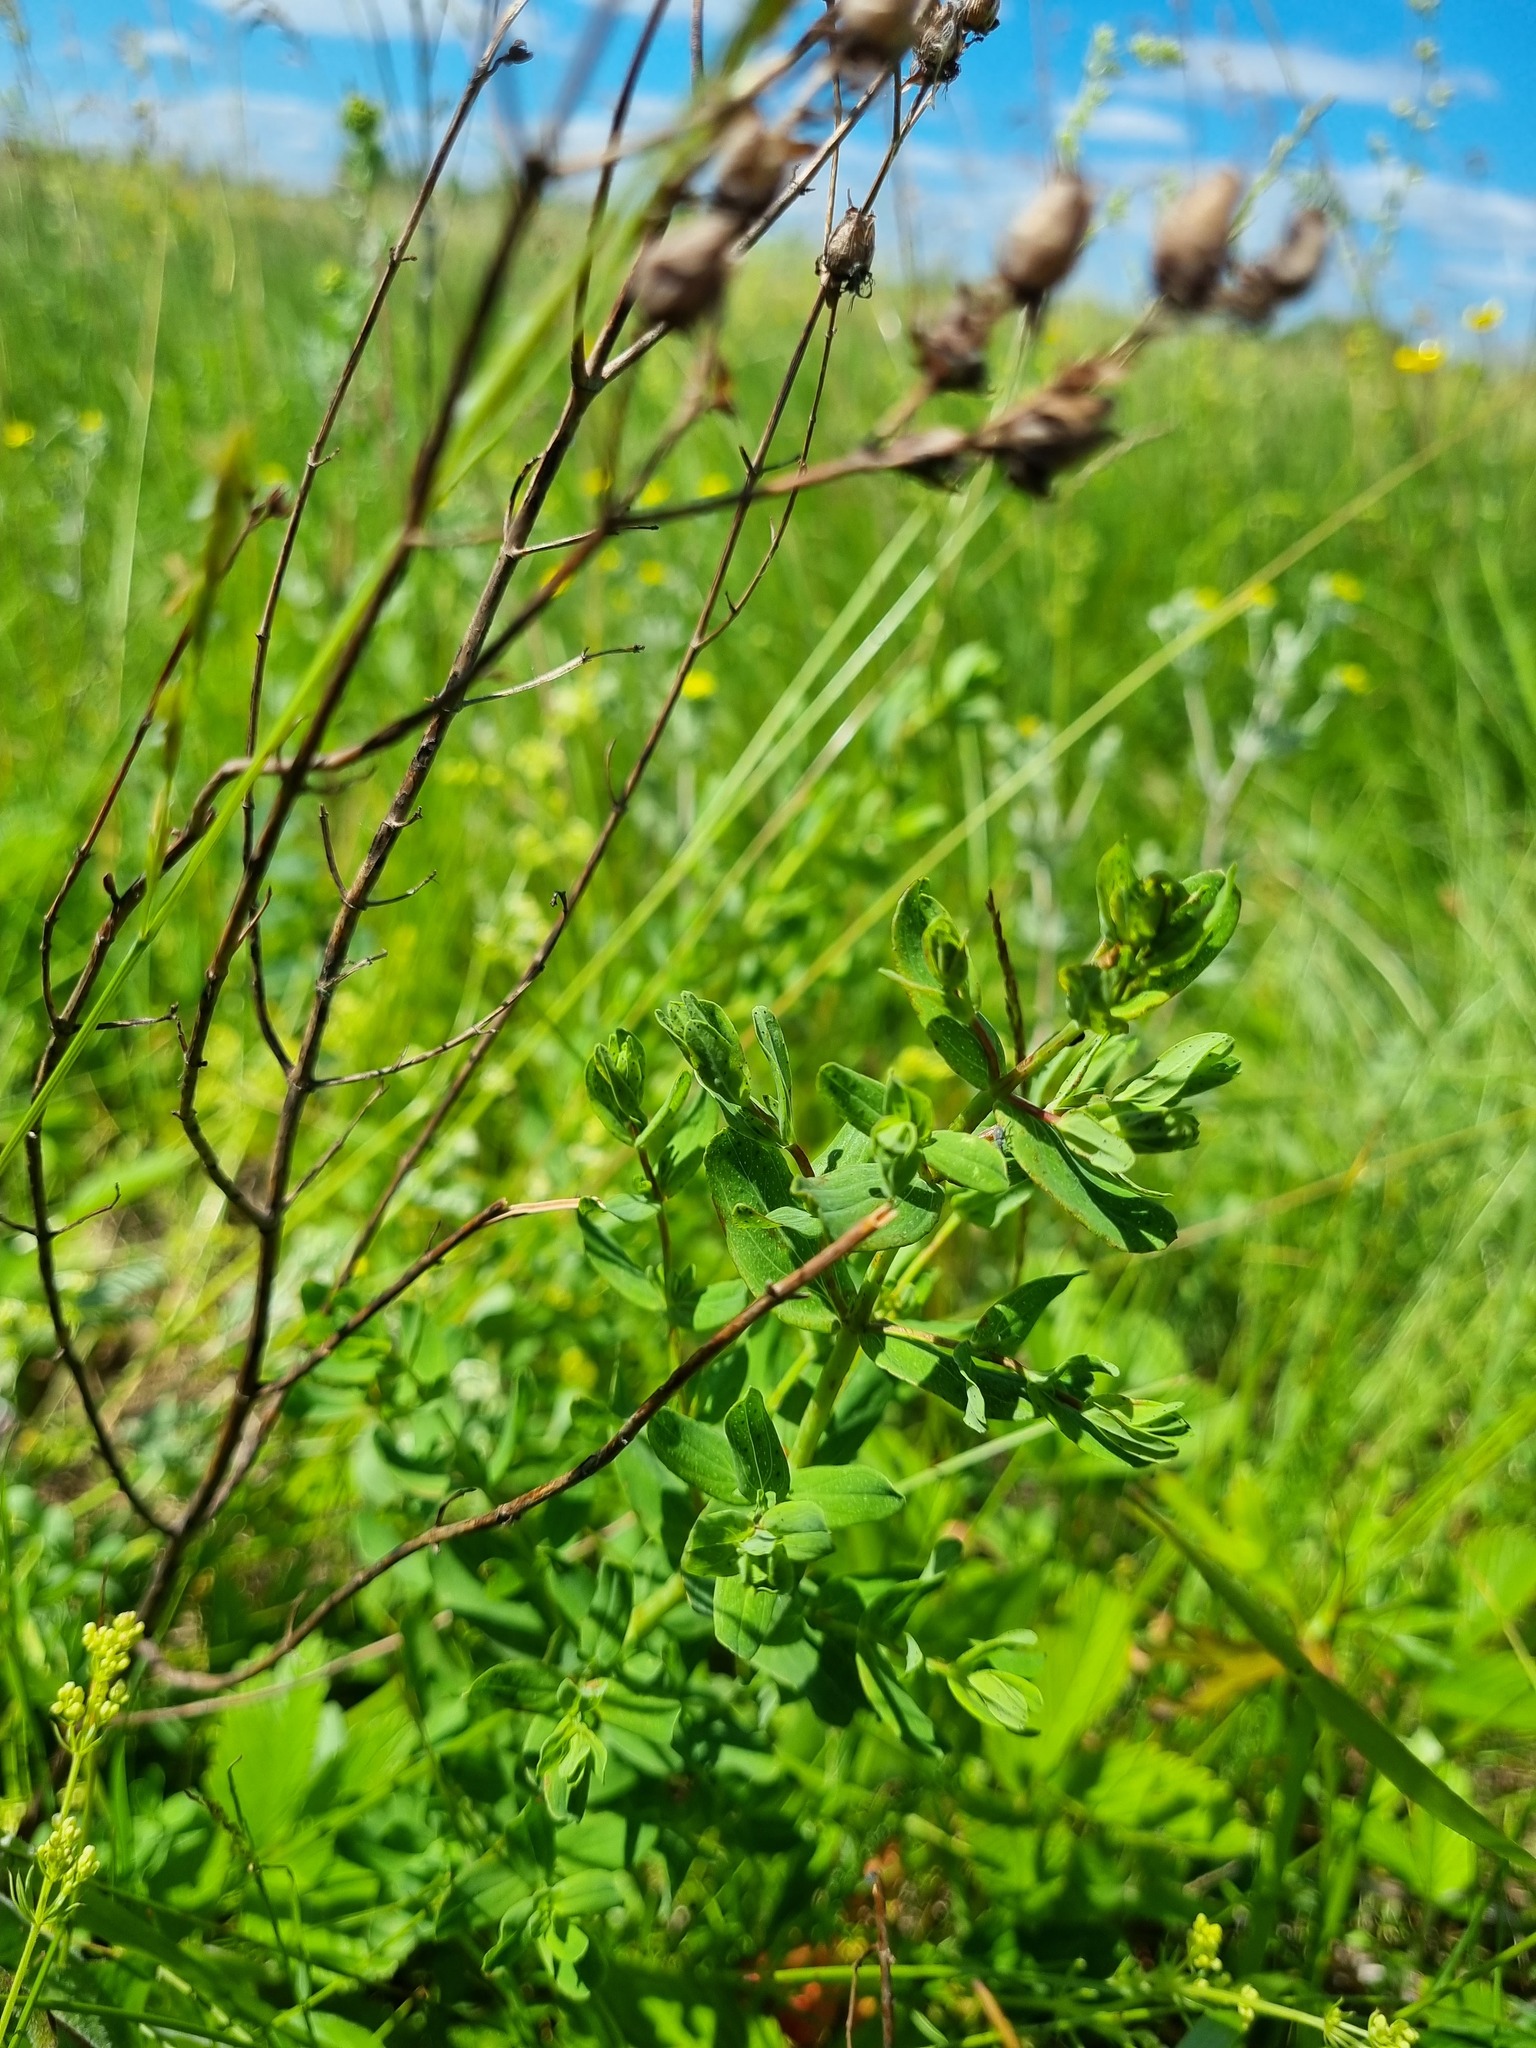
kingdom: Plantae
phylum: Tracheophyta
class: Magnoliopsida
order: Malpighiales
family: Hypericaceae
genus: Hypericum
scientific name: Hypericum perforatum
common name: Common st. johnswort
